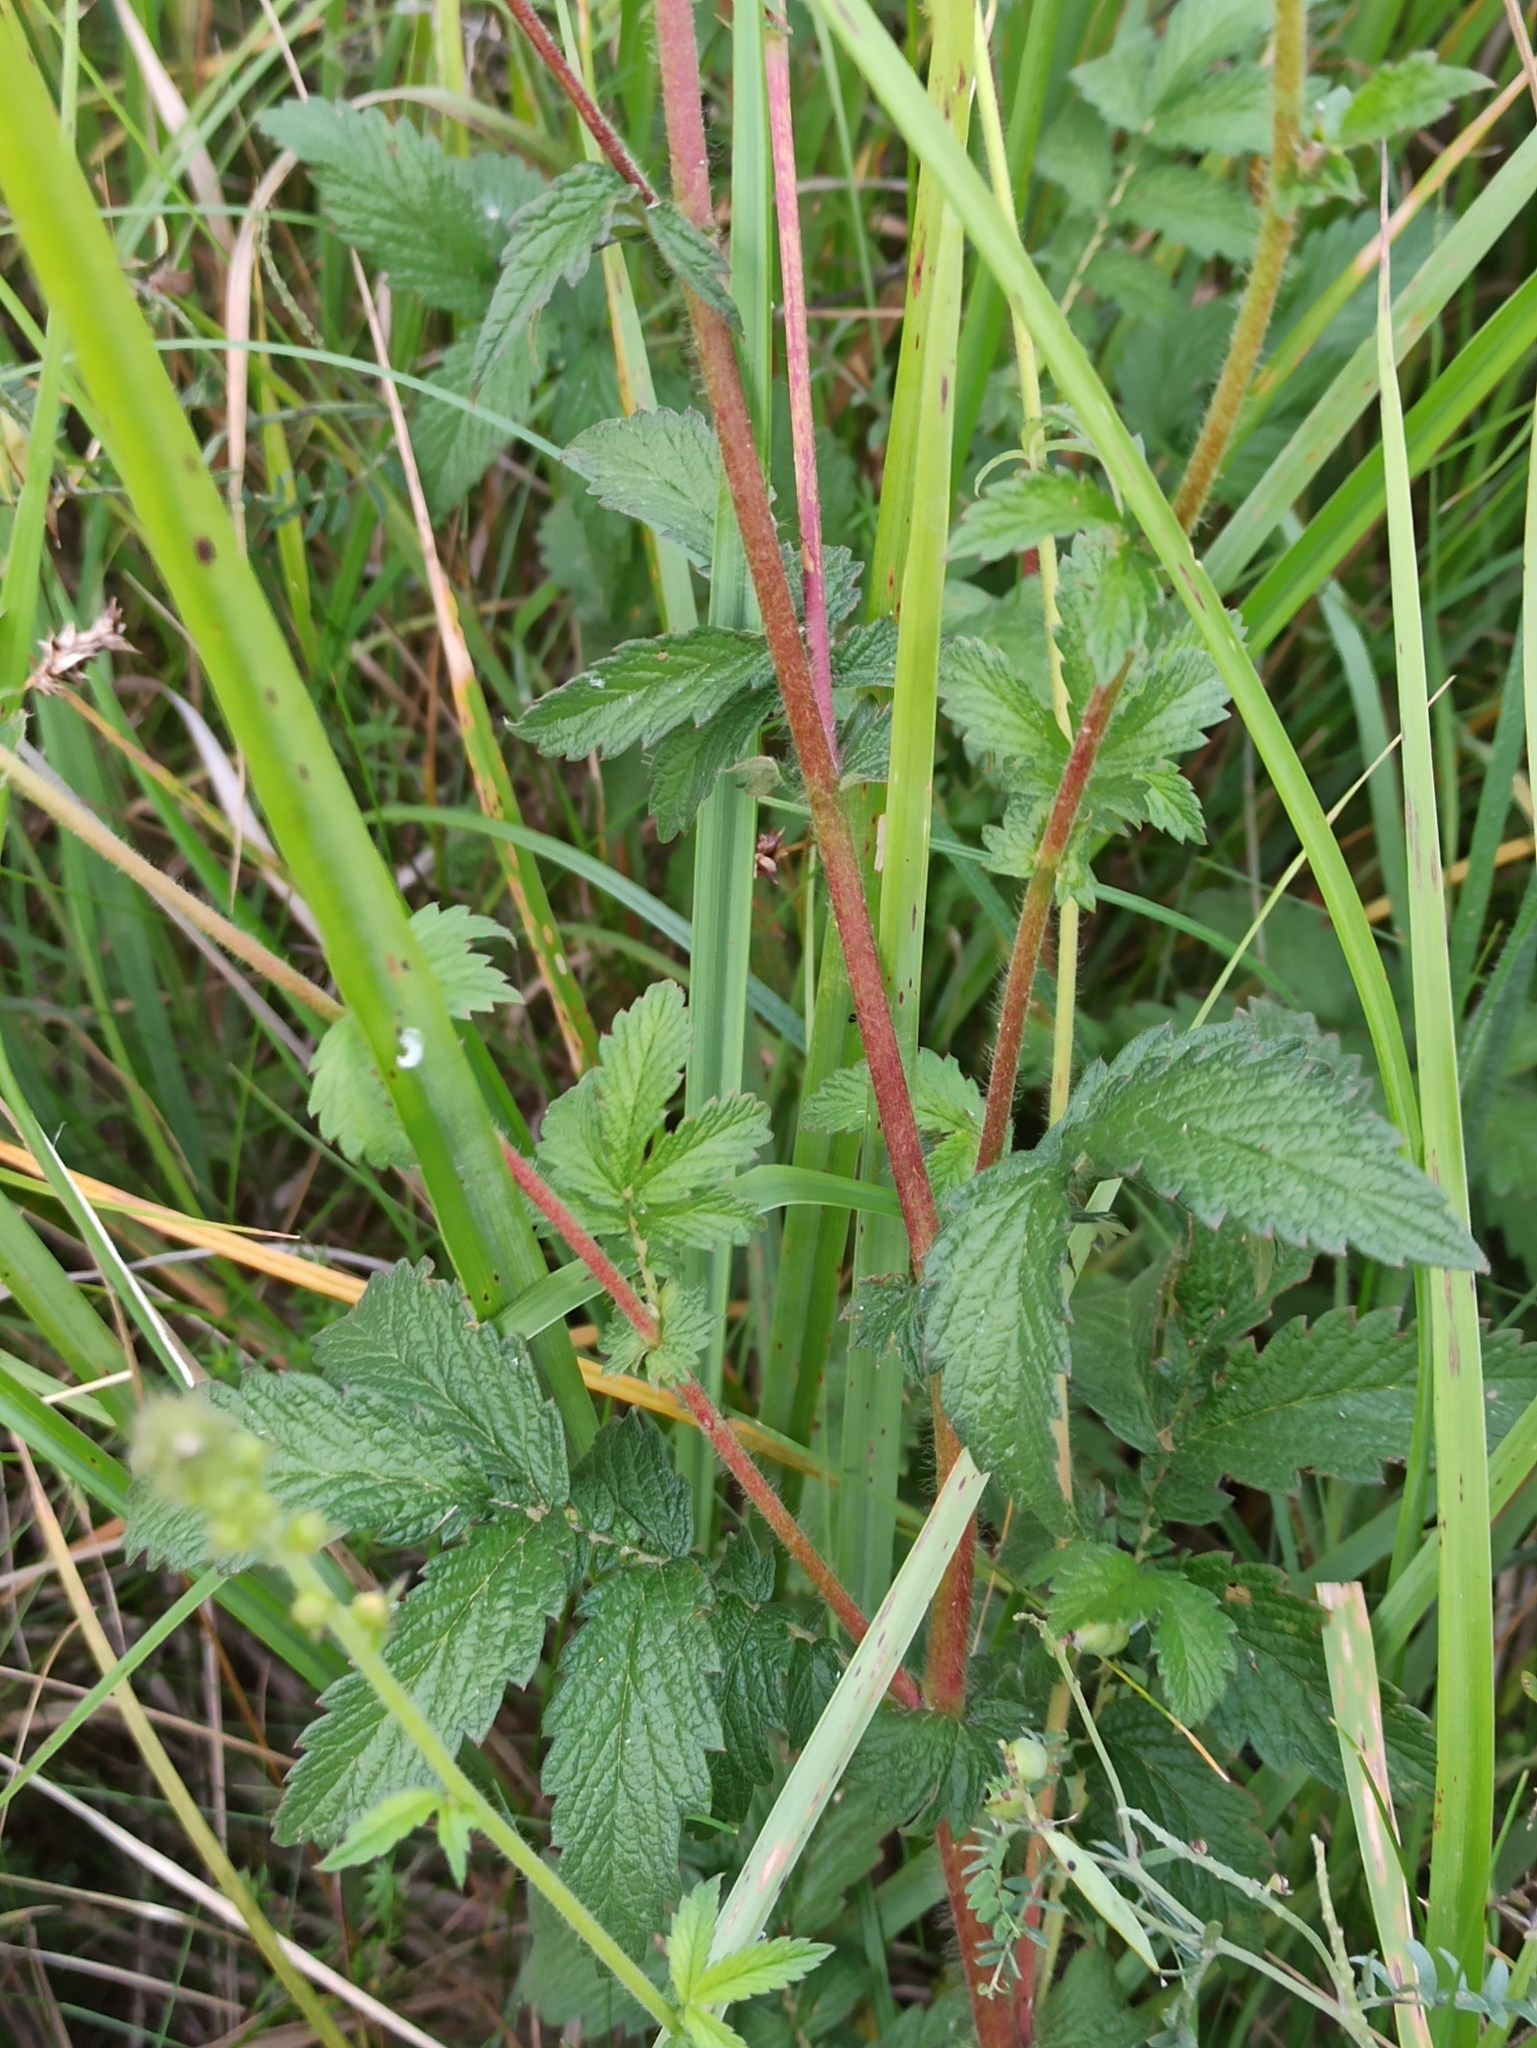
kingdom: Plantae
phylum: Tracheophyta
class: Magnoliopsida
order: Rosales
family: Rosaceae
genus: Agrimonia
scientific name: Agrimonia eupatoria
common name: Agrimony
